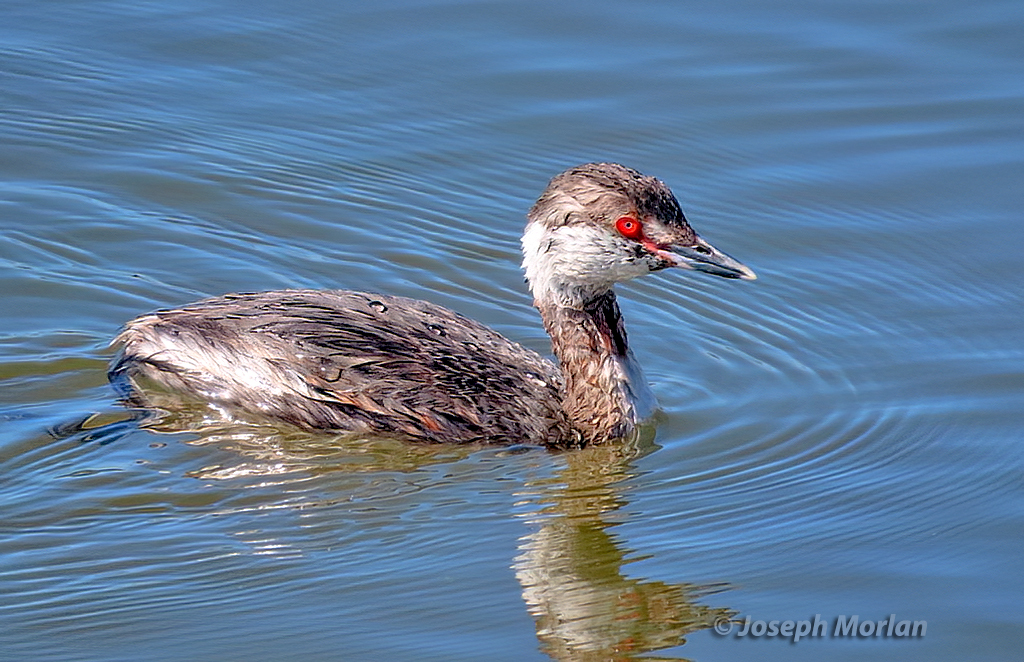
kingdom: Animalia
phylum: Chordata
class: Aves
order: Podicipediformes
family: Podicipedidae
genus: Podiceps
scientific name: Podiceps auritus
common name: Horned grebe
